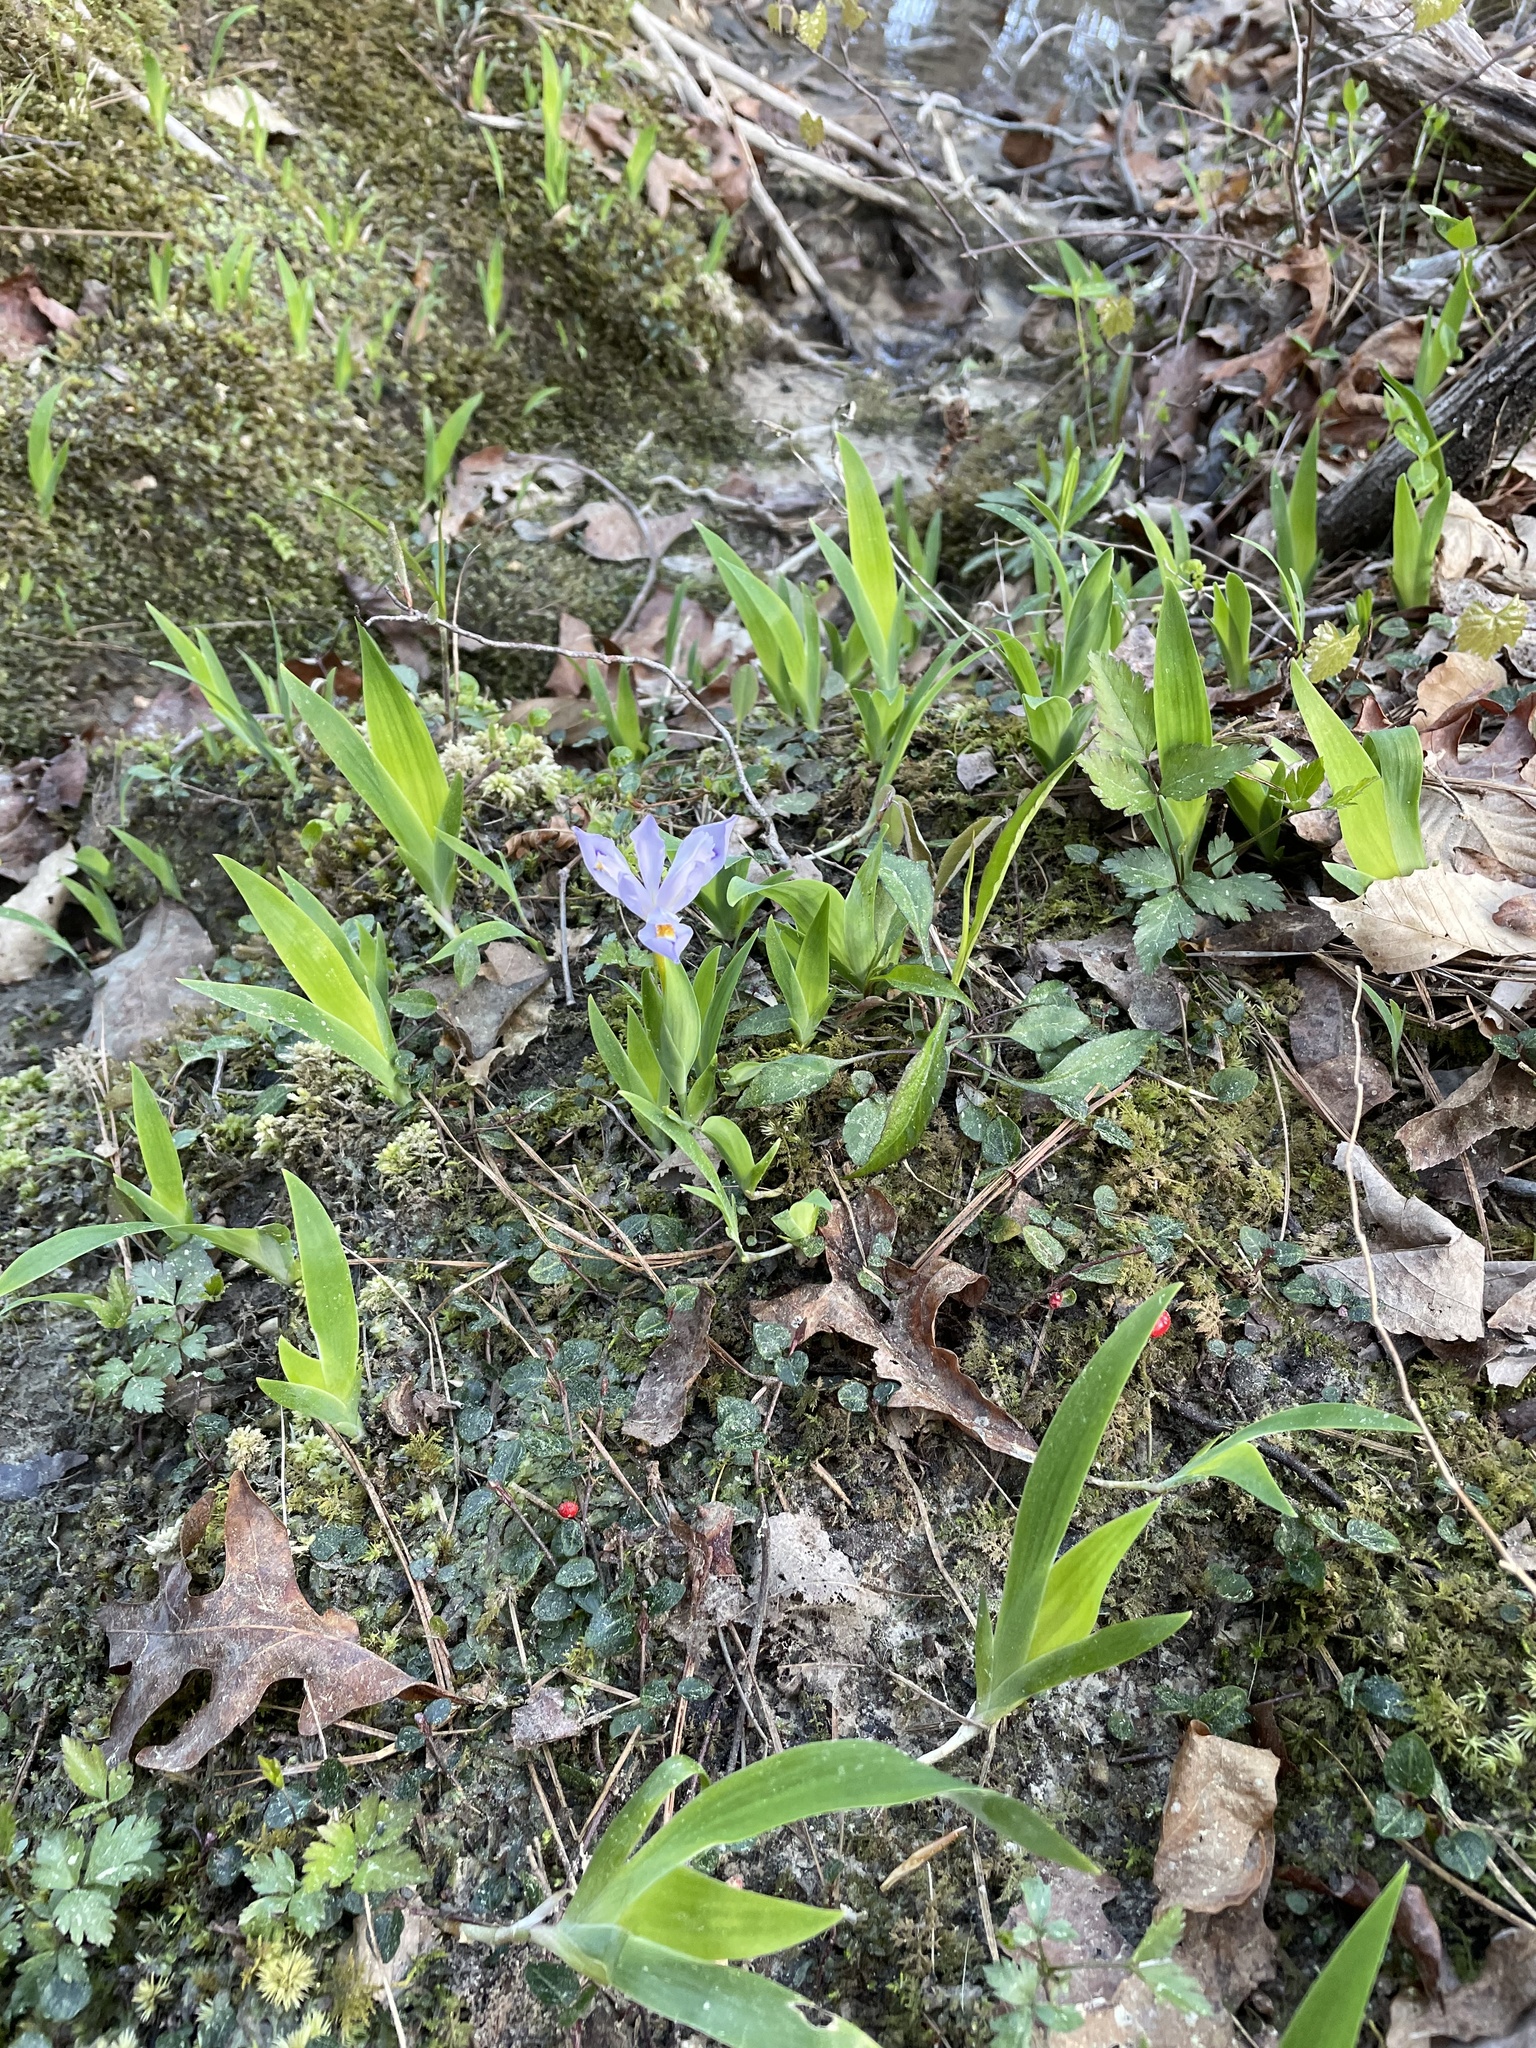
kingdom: Plantae
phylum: Tracheophyta
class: Liliopsida
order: Asparagales
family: Iridaceae
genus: Iris
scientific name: Iris cristata
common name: Crested iris
